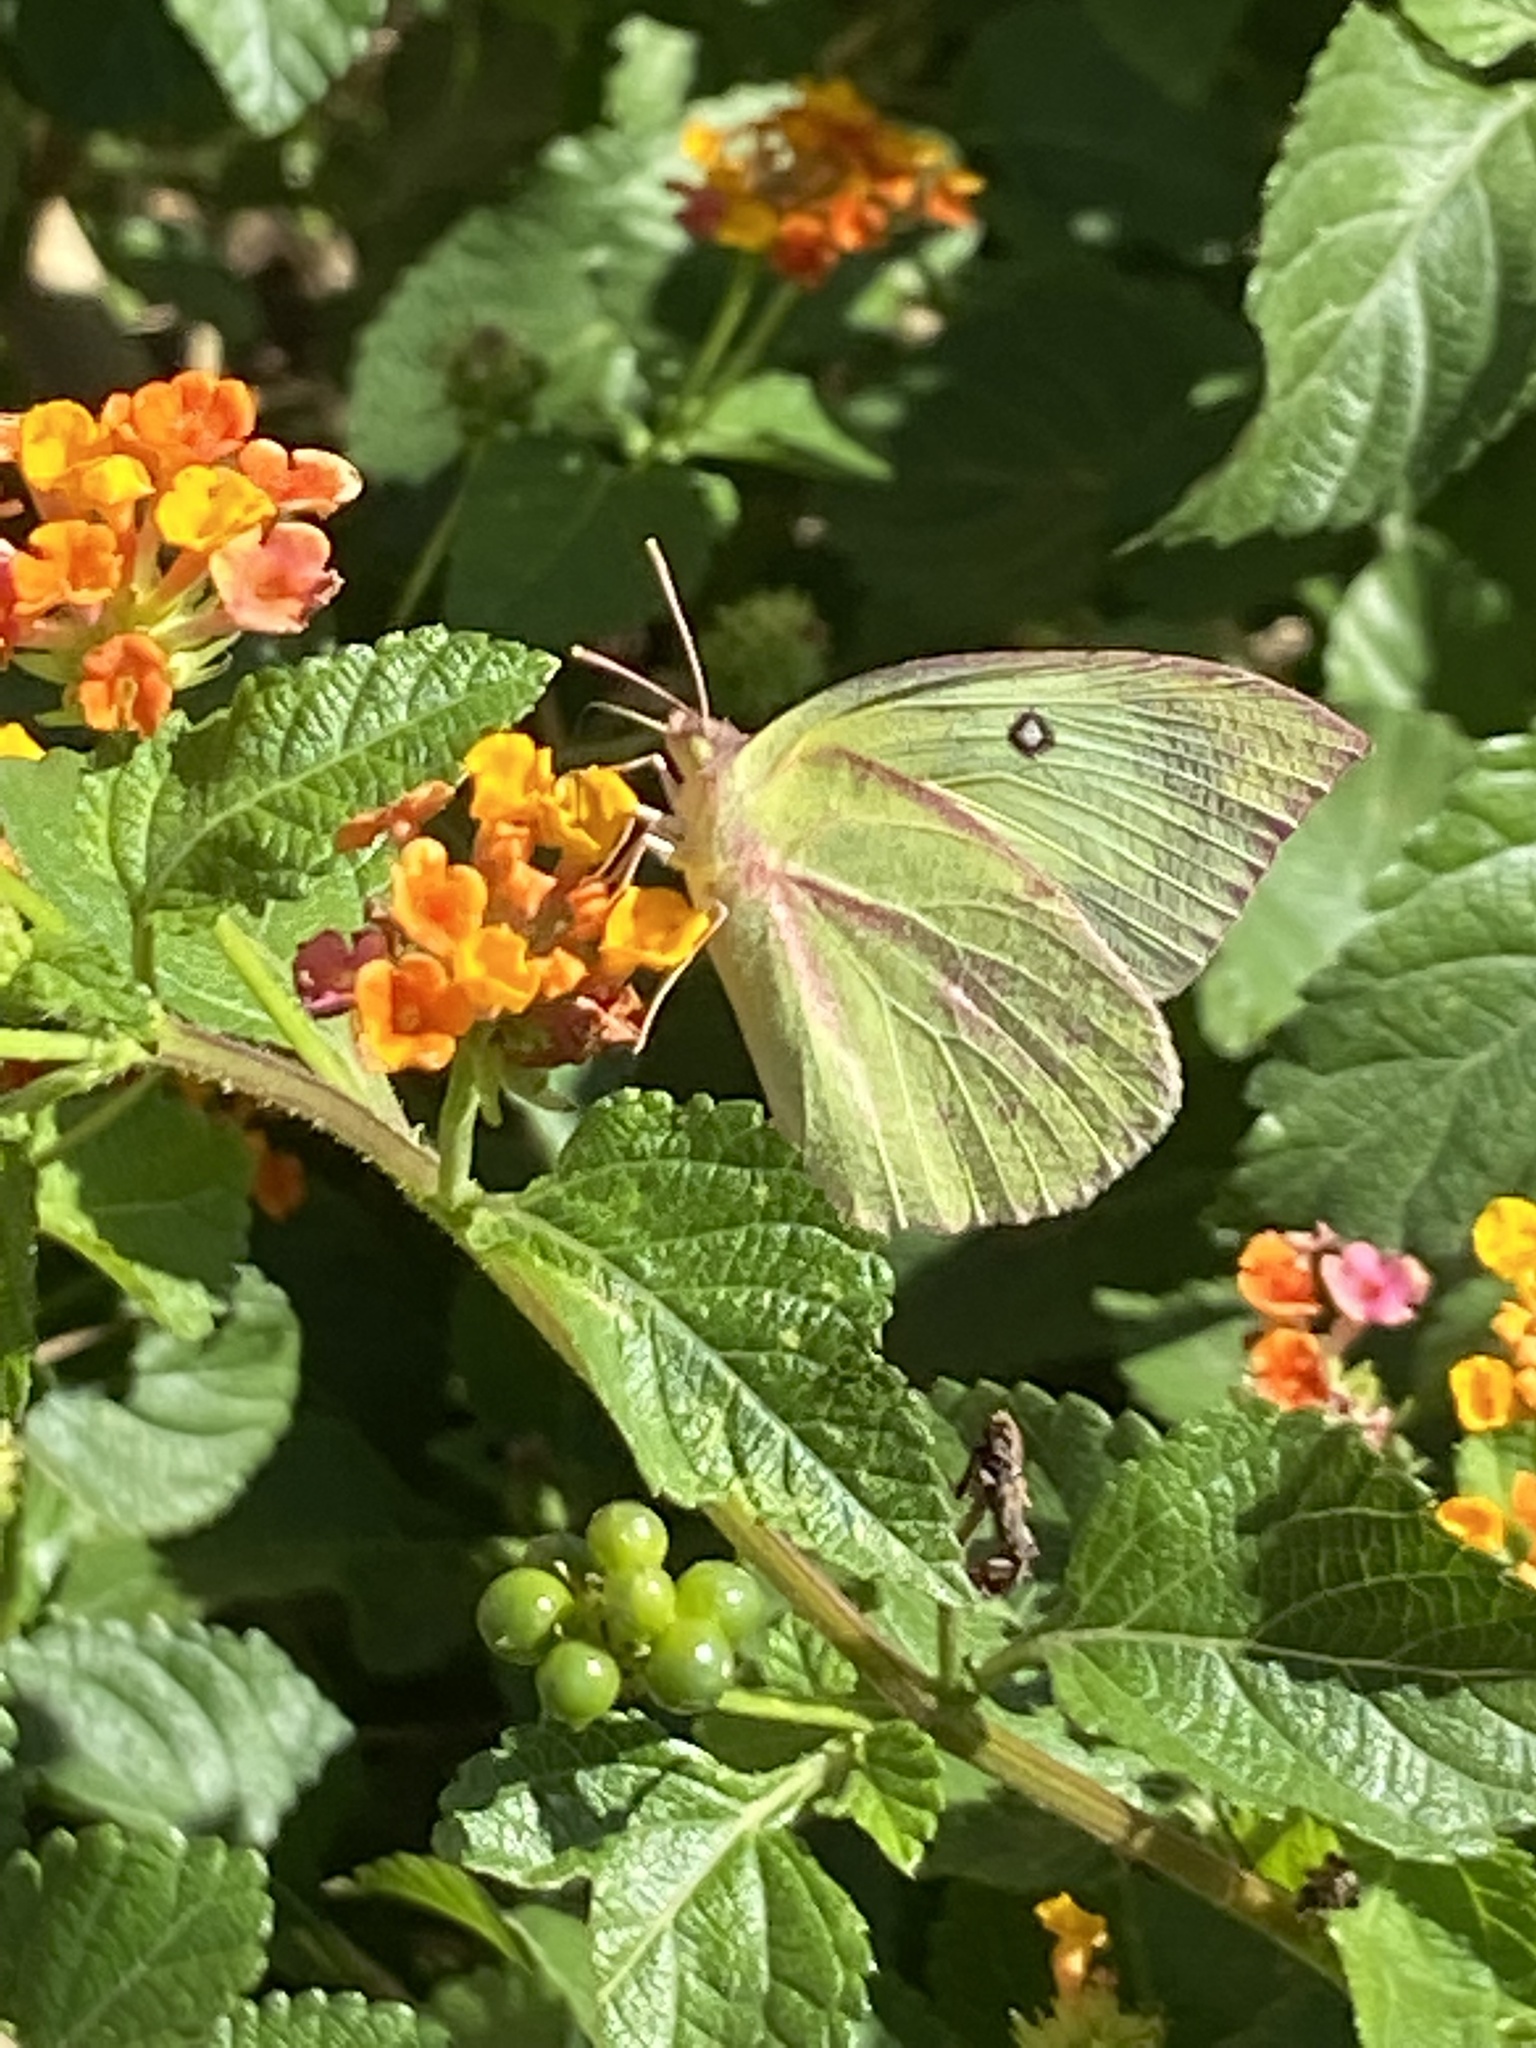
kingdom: Animalia
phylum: Arthropoda
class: Insecta
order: Lepidoptera
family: Pieridae
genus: Zerene
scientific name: Zerene cesonia
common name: Southern dogface
